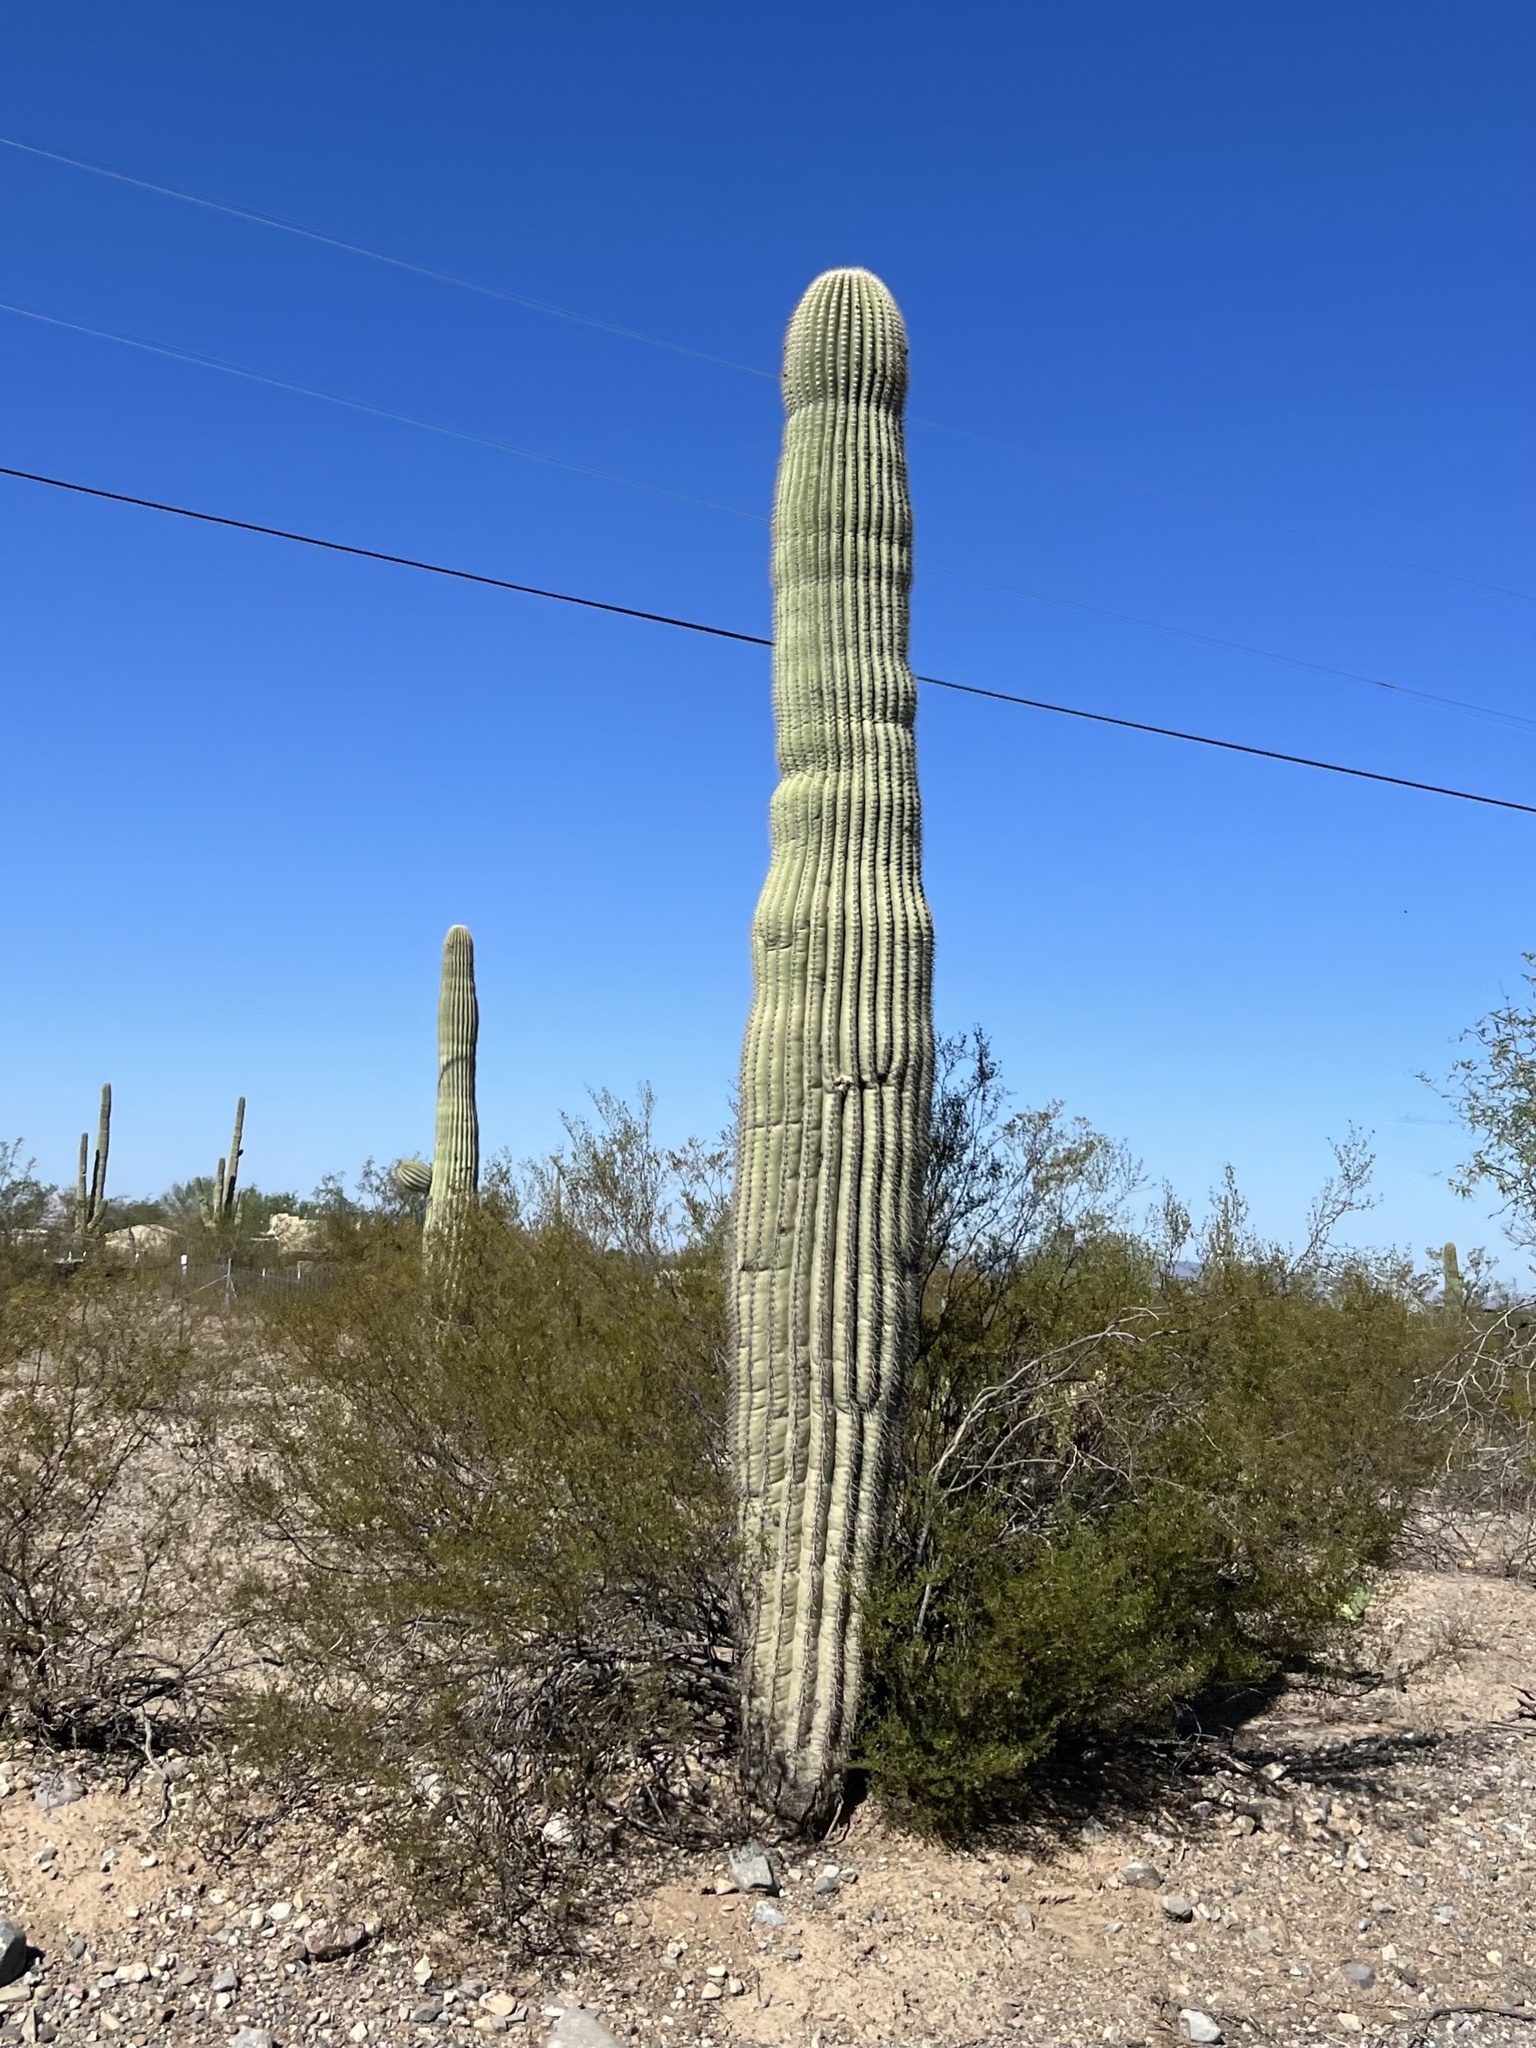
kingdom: Plantae
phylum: Tracheophyta
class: Magnoliopsida
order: Caryophyllales
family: Cactaceae
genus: Carnegiea
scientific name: Carnegiea gigantea
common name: Saguaro
